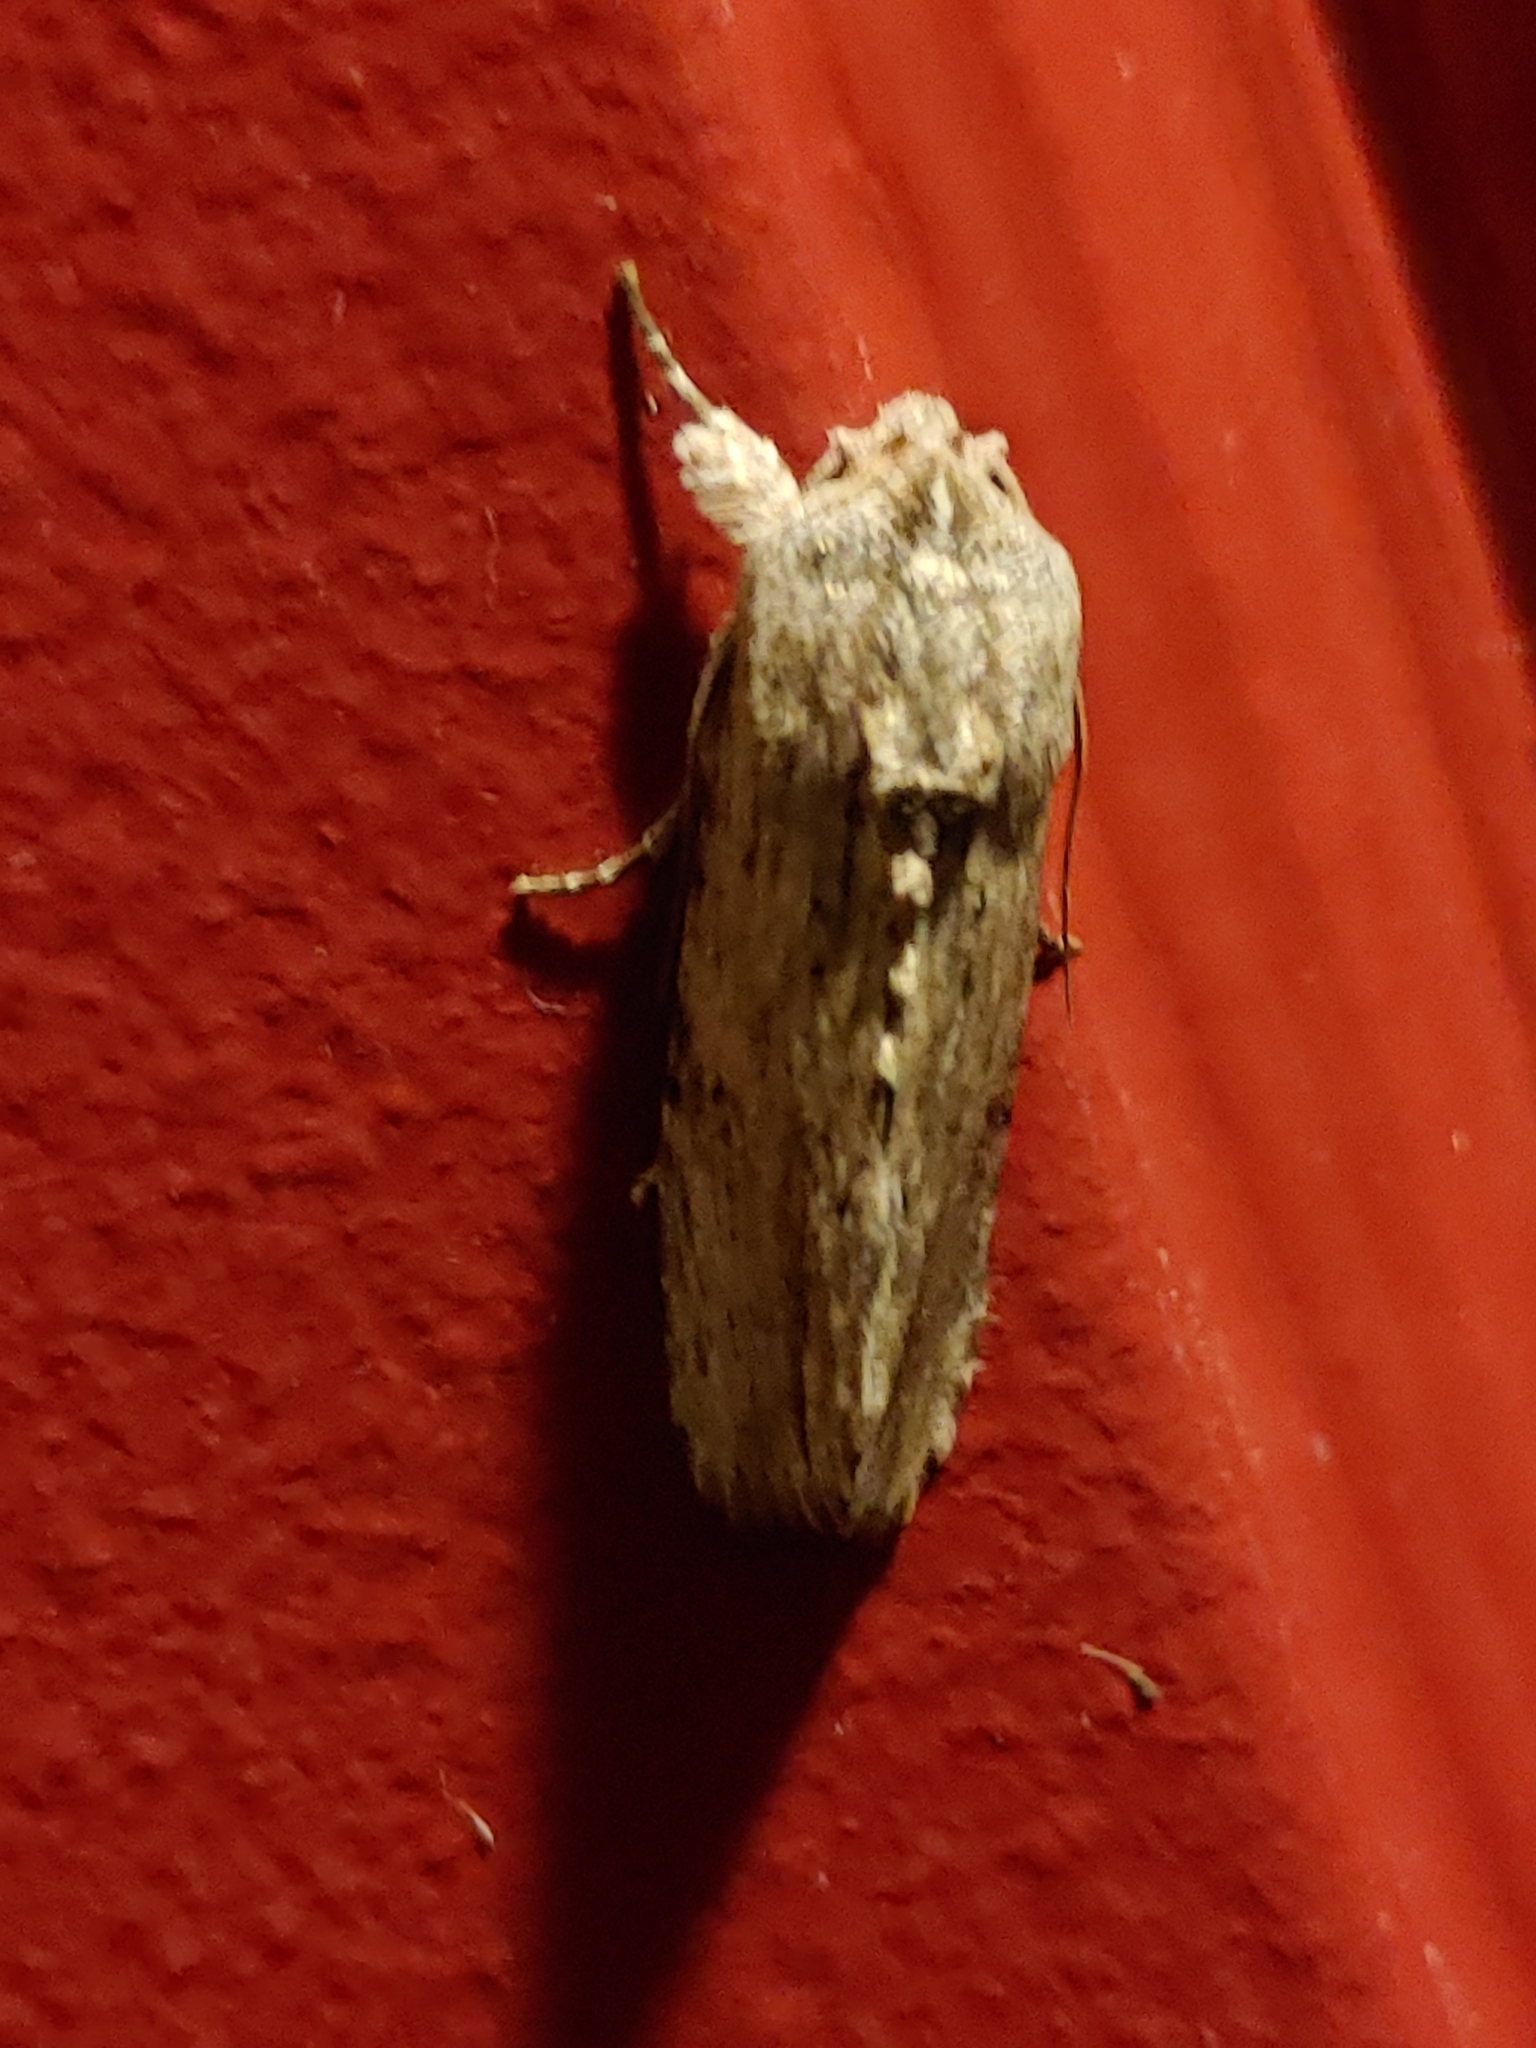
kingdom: Animalia
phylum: Arthropoda
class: Insecta
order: Lepidoptera
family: Noctuidae
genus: Spodoptera
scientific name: Spodoptera eridania
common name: Southern army worm
